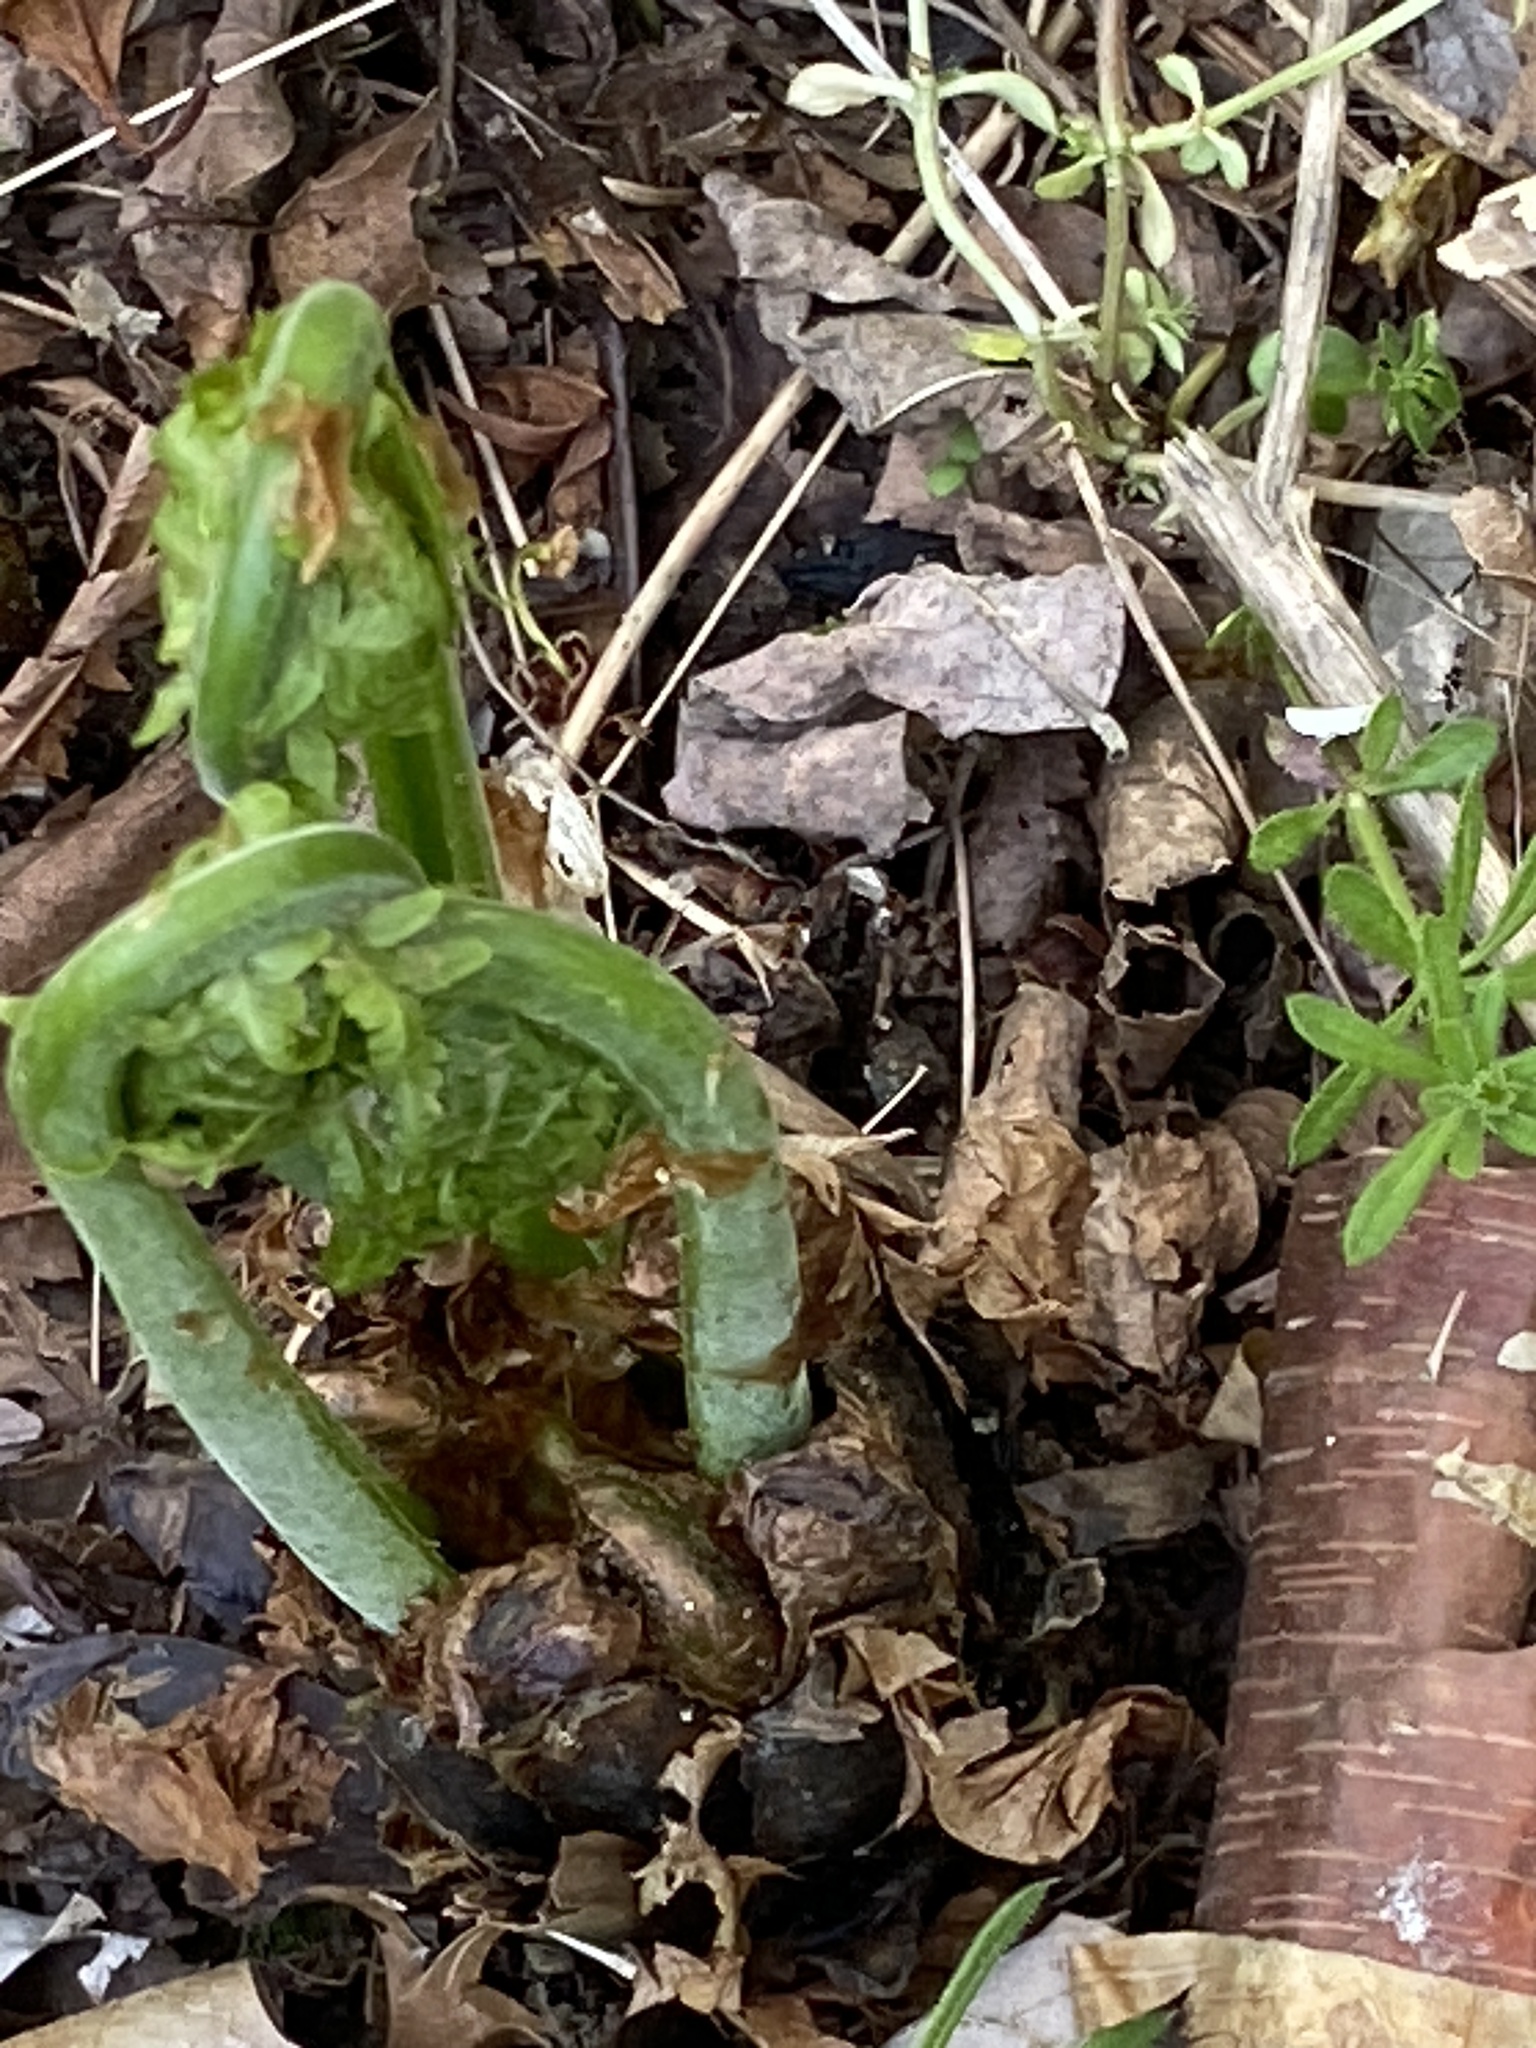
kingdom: Plantae
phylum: Tracheophyta
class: Polypodiopsida
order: Polypodiales
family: Onocleaceae
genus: Matteuccia
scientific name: Matteuccia struthiopteris
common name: Ostrich fern
